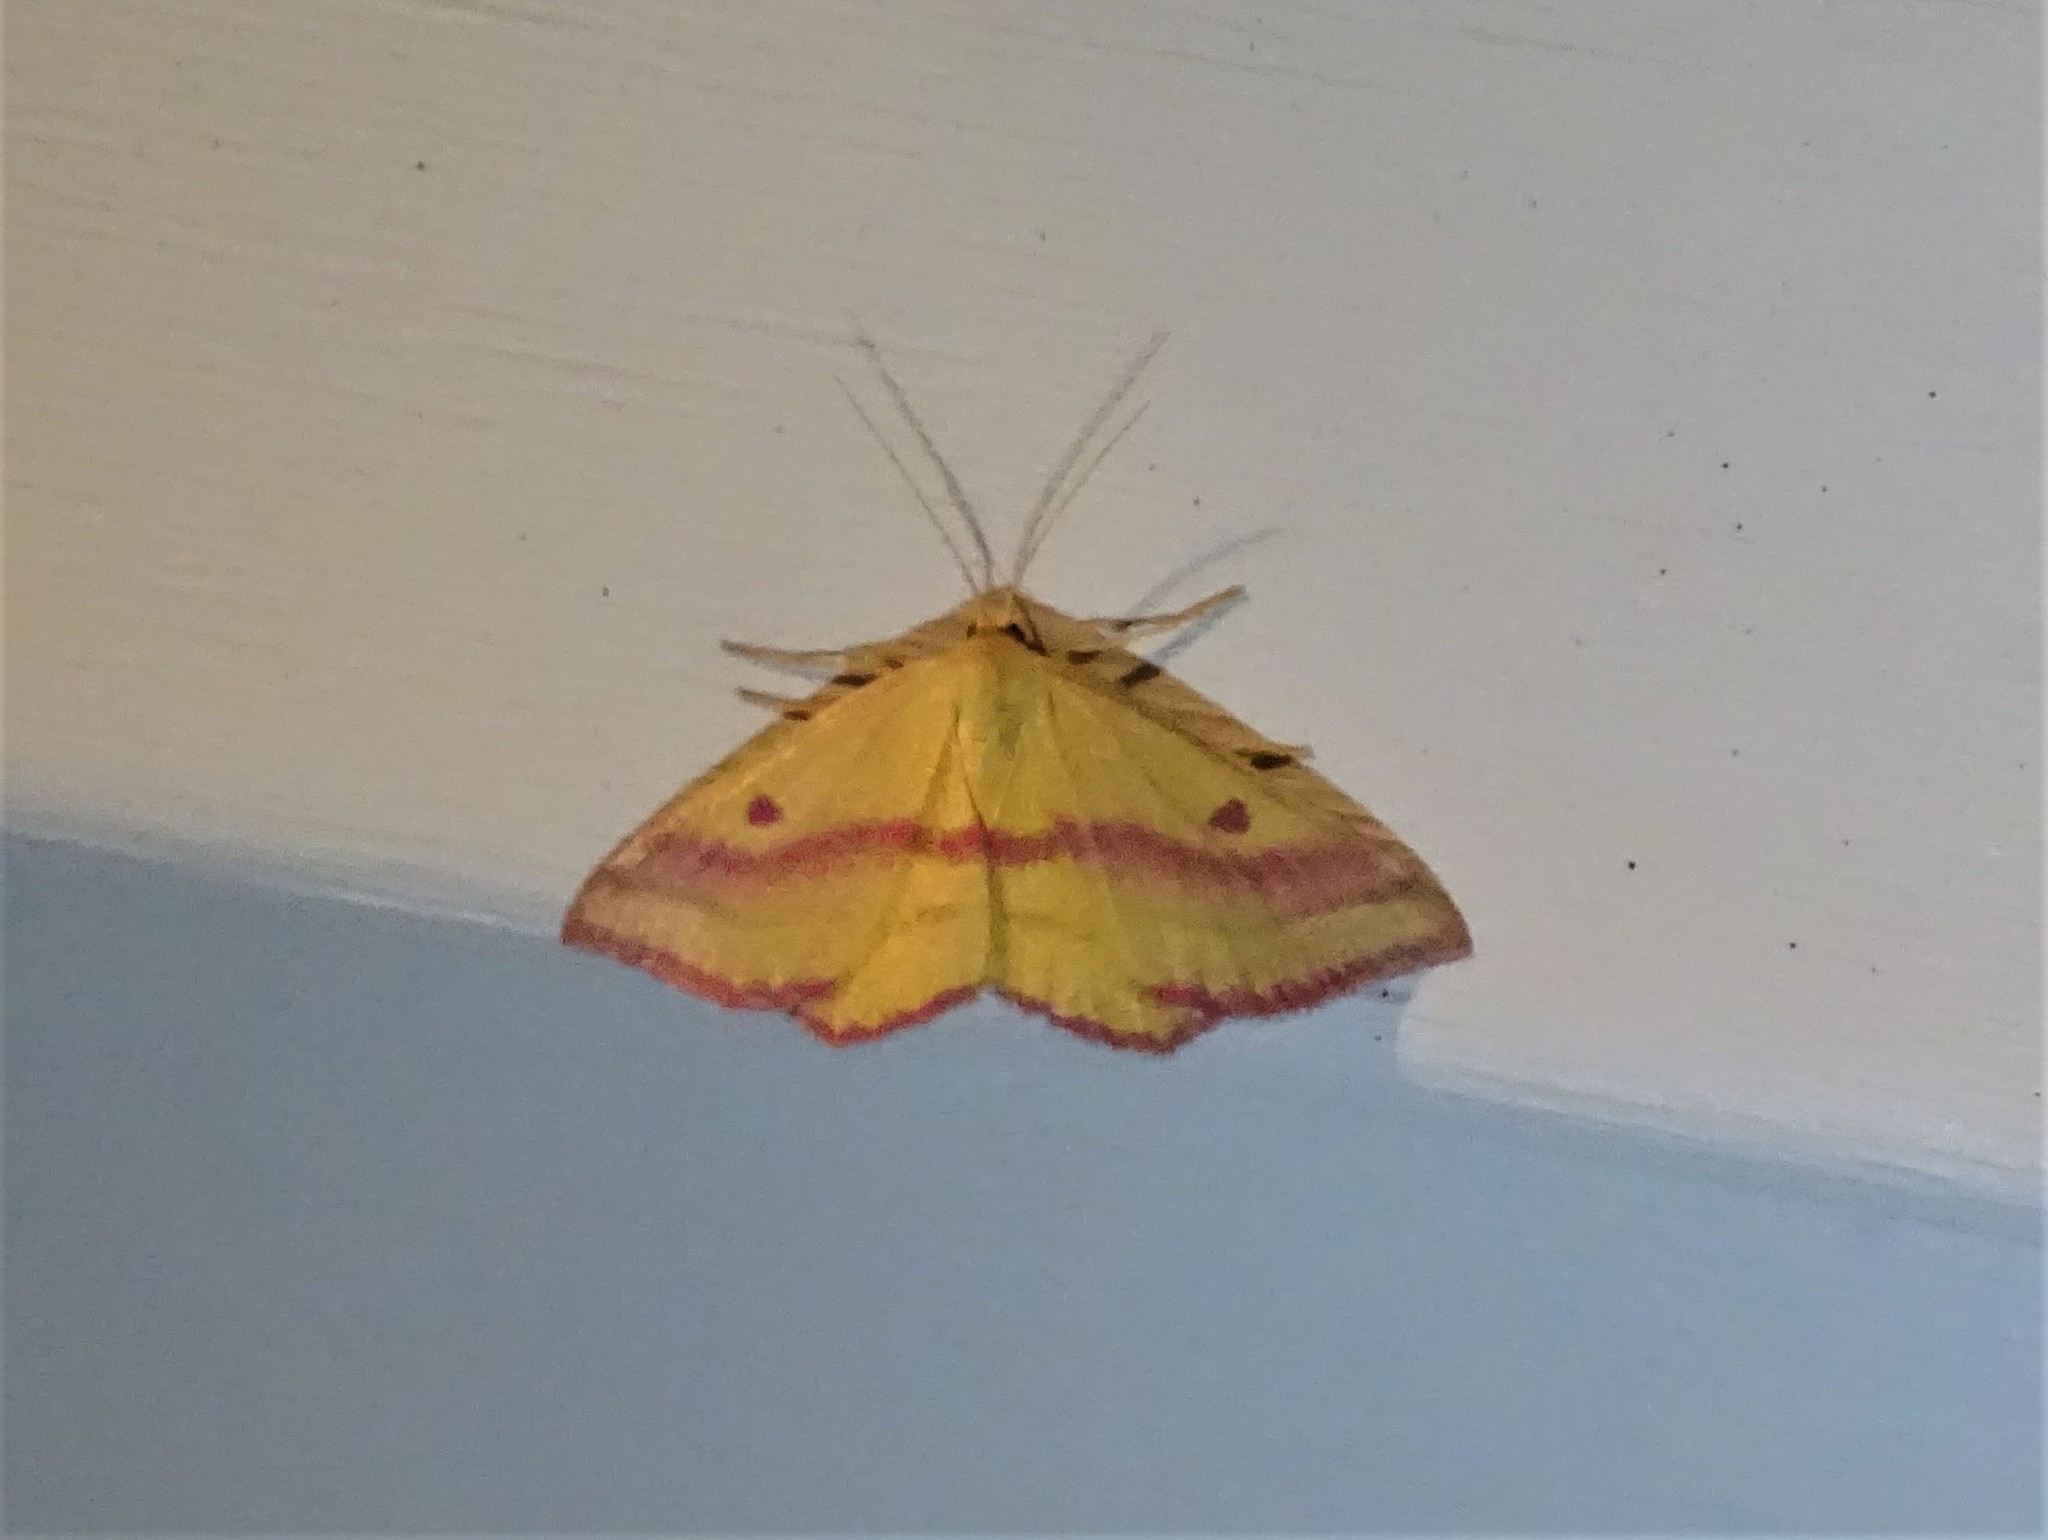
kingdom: Animalia
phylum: Arthropoda
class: Insecta
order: Lepidoptera
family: Geometridae
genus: Haematopis
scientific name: Haematopis grataria
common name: Chickweed geometer
